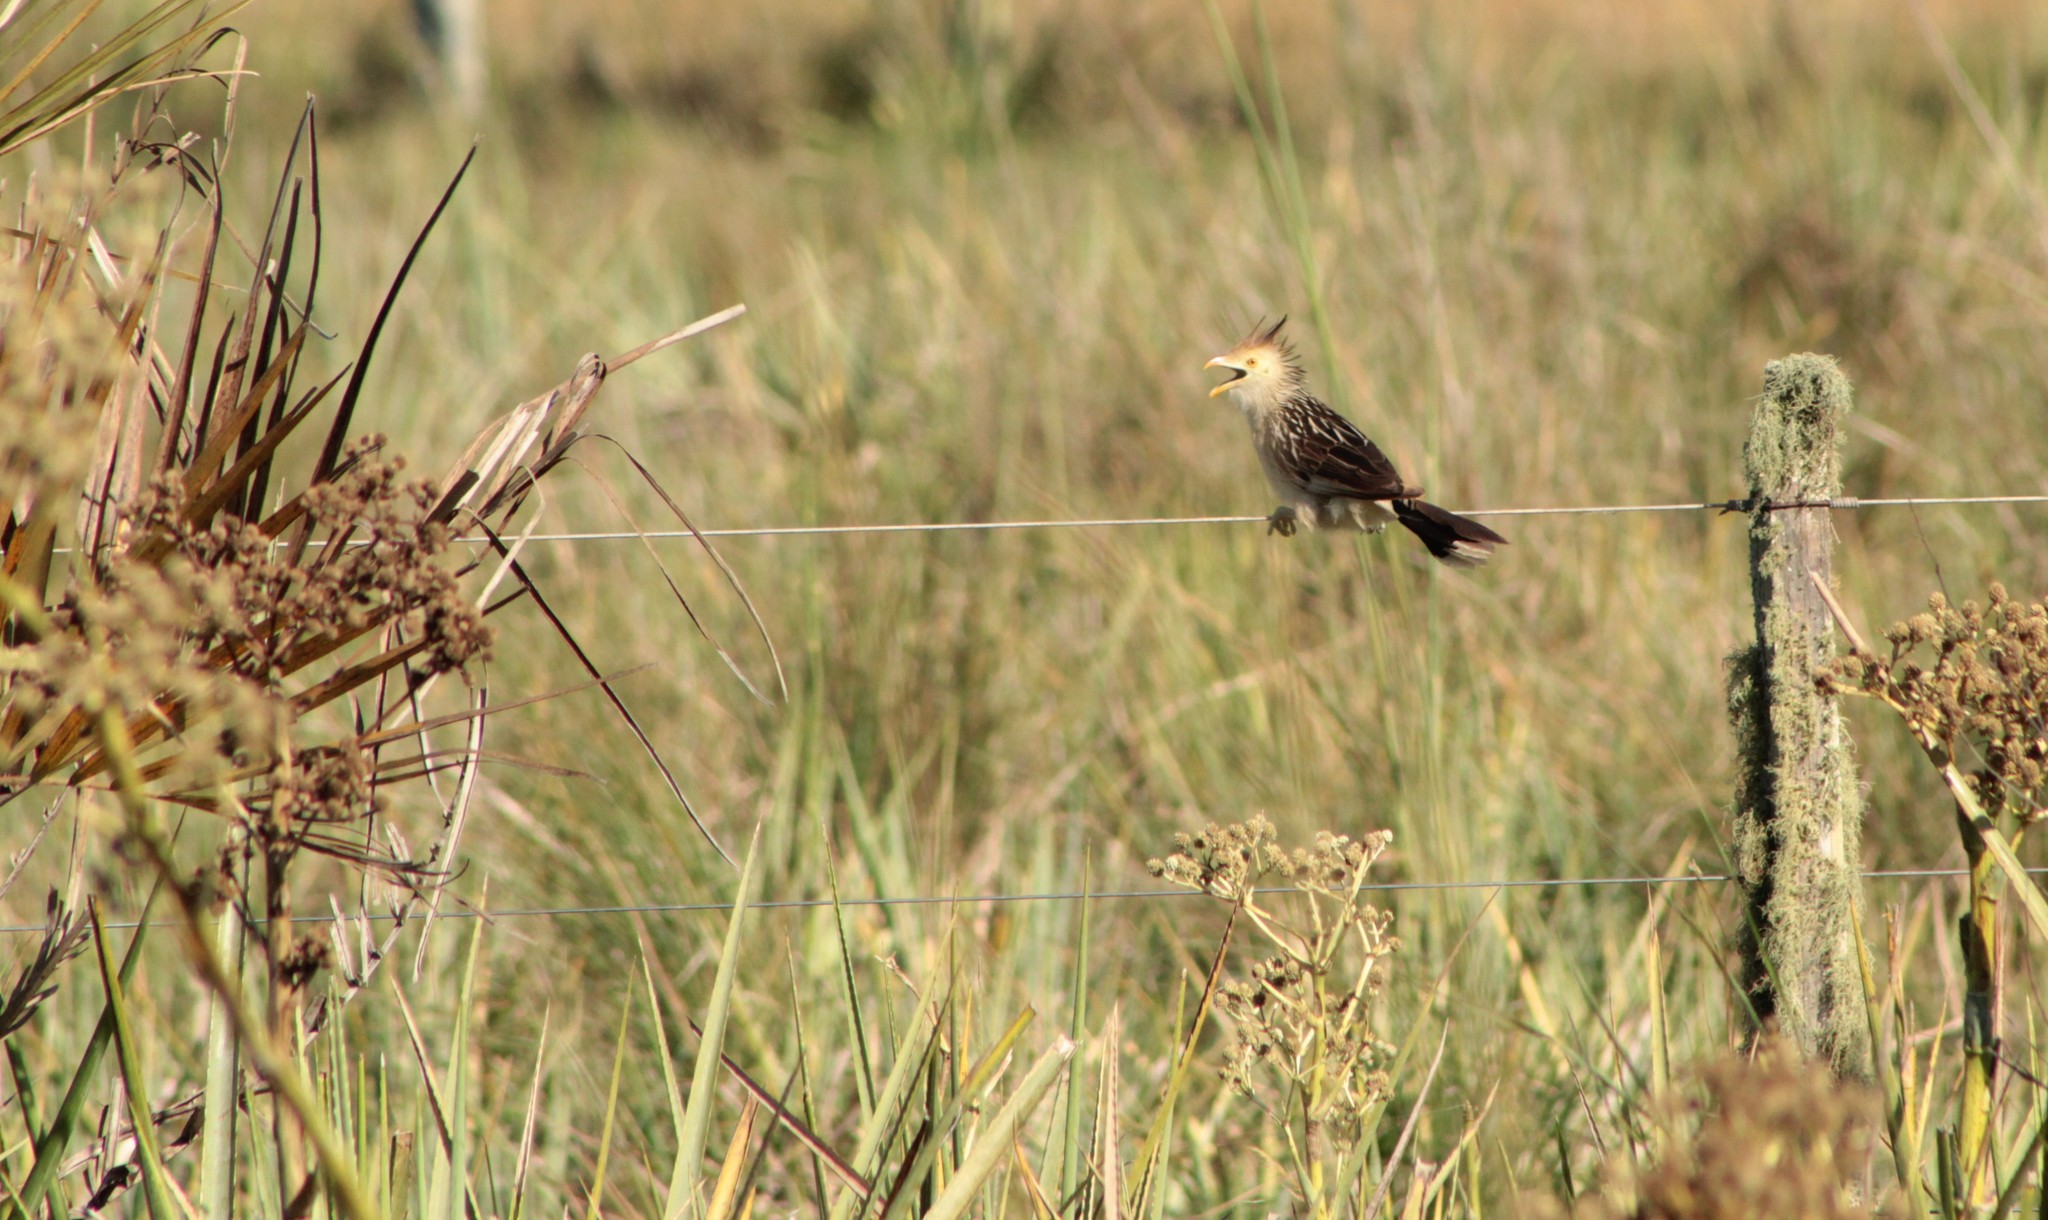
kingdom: Animalia
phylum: Chordata
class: Aves
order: Cuculiformes
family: Cuculidae
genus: Guira
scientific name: Guira guira
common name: Guira cuckoo
